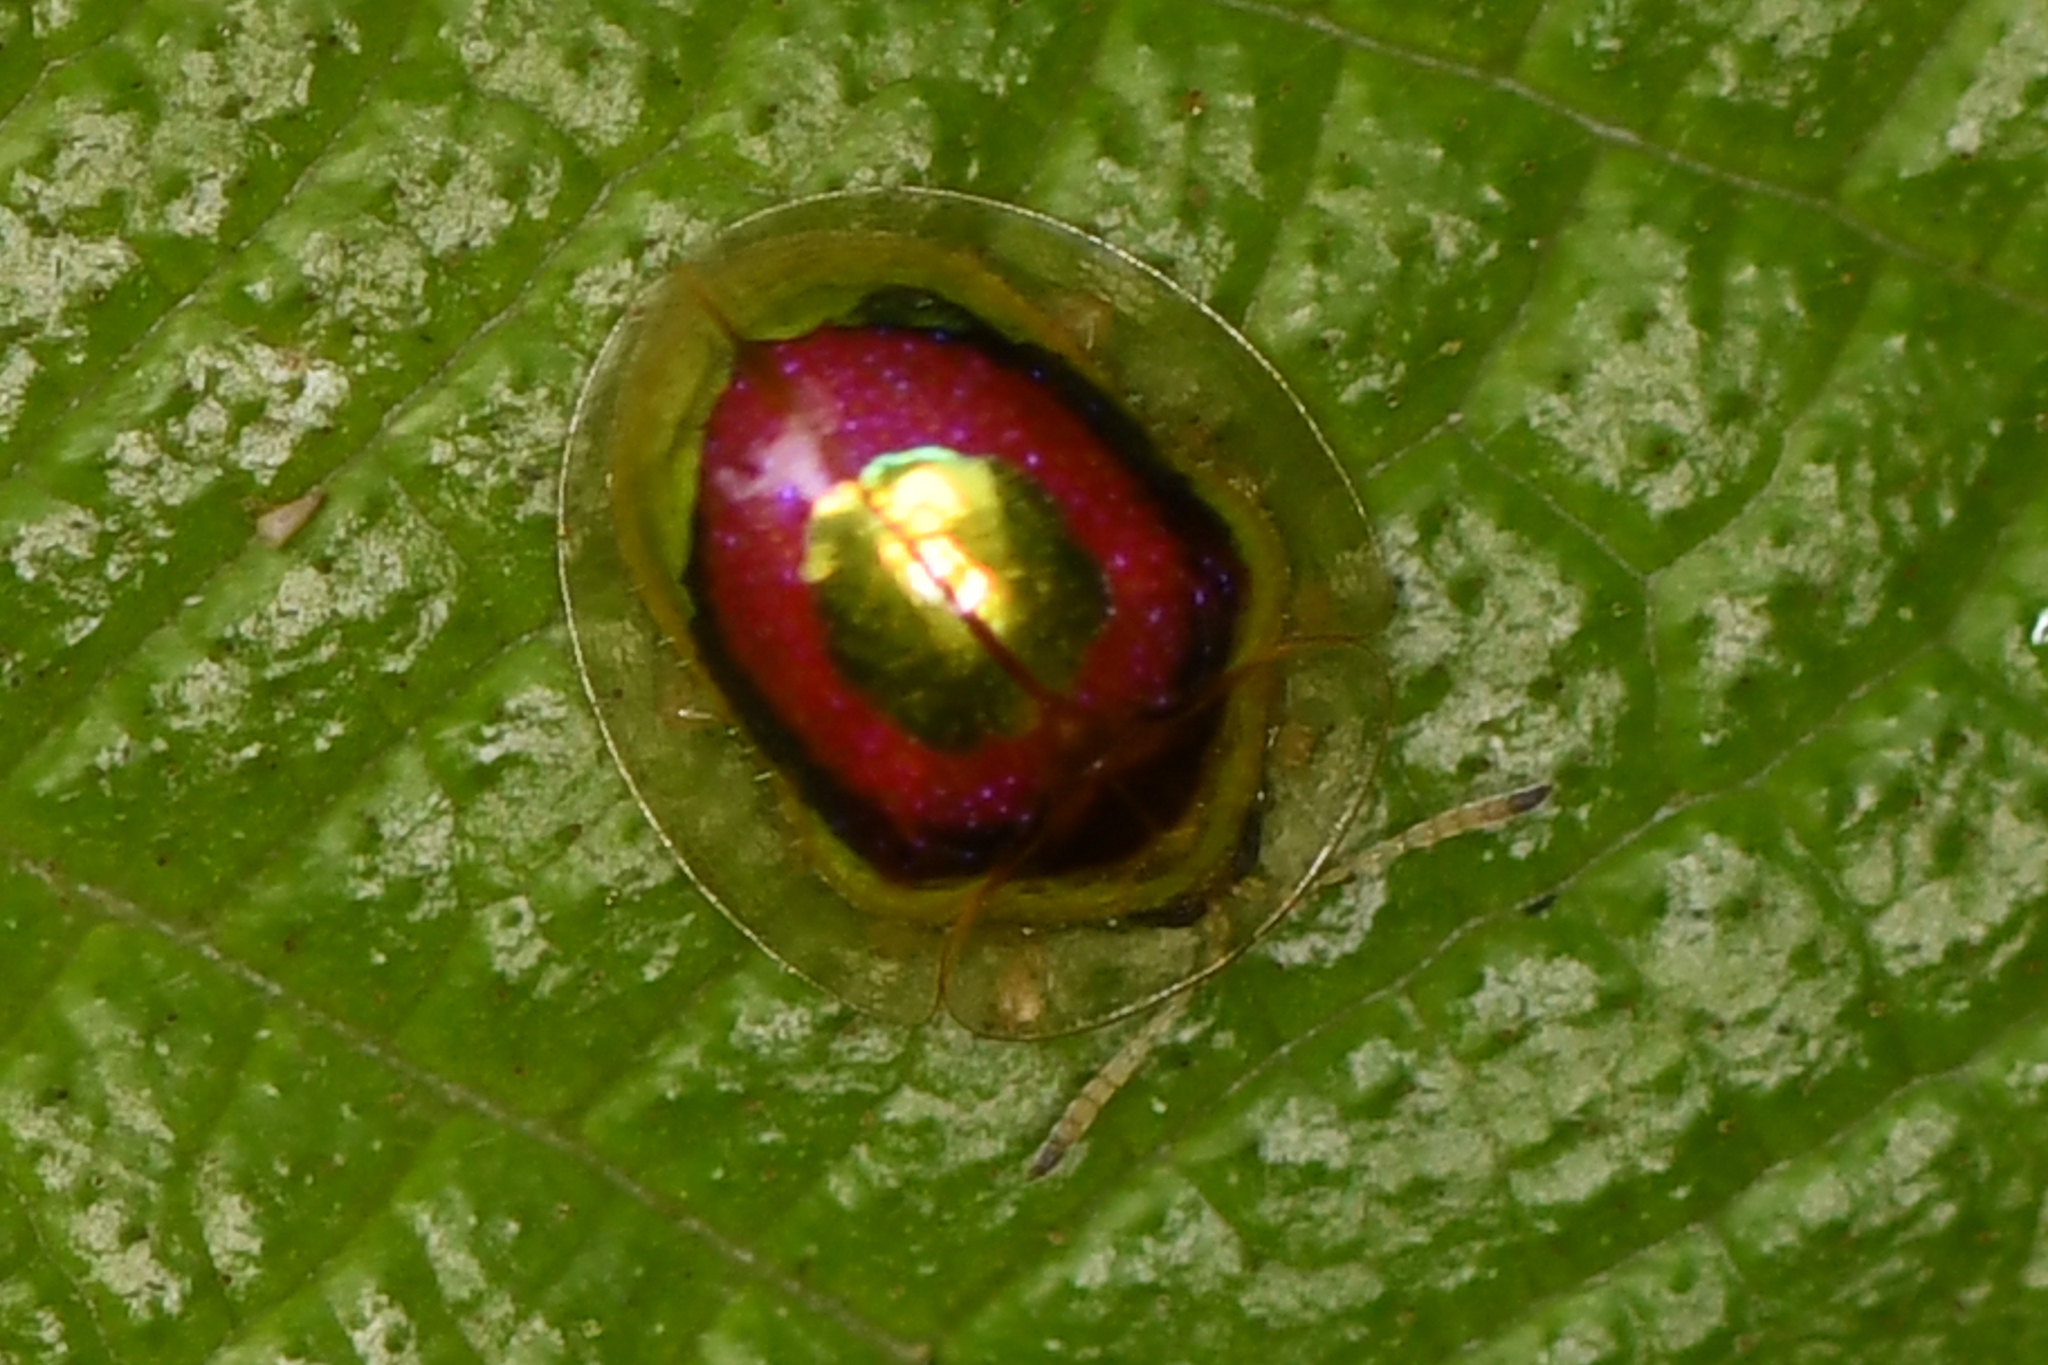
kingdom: Animalia
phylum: Arthropoda
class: Insecta
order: Coleoptera
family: Chrysomelidae
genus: Charidotella
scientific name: Charidotella puella
